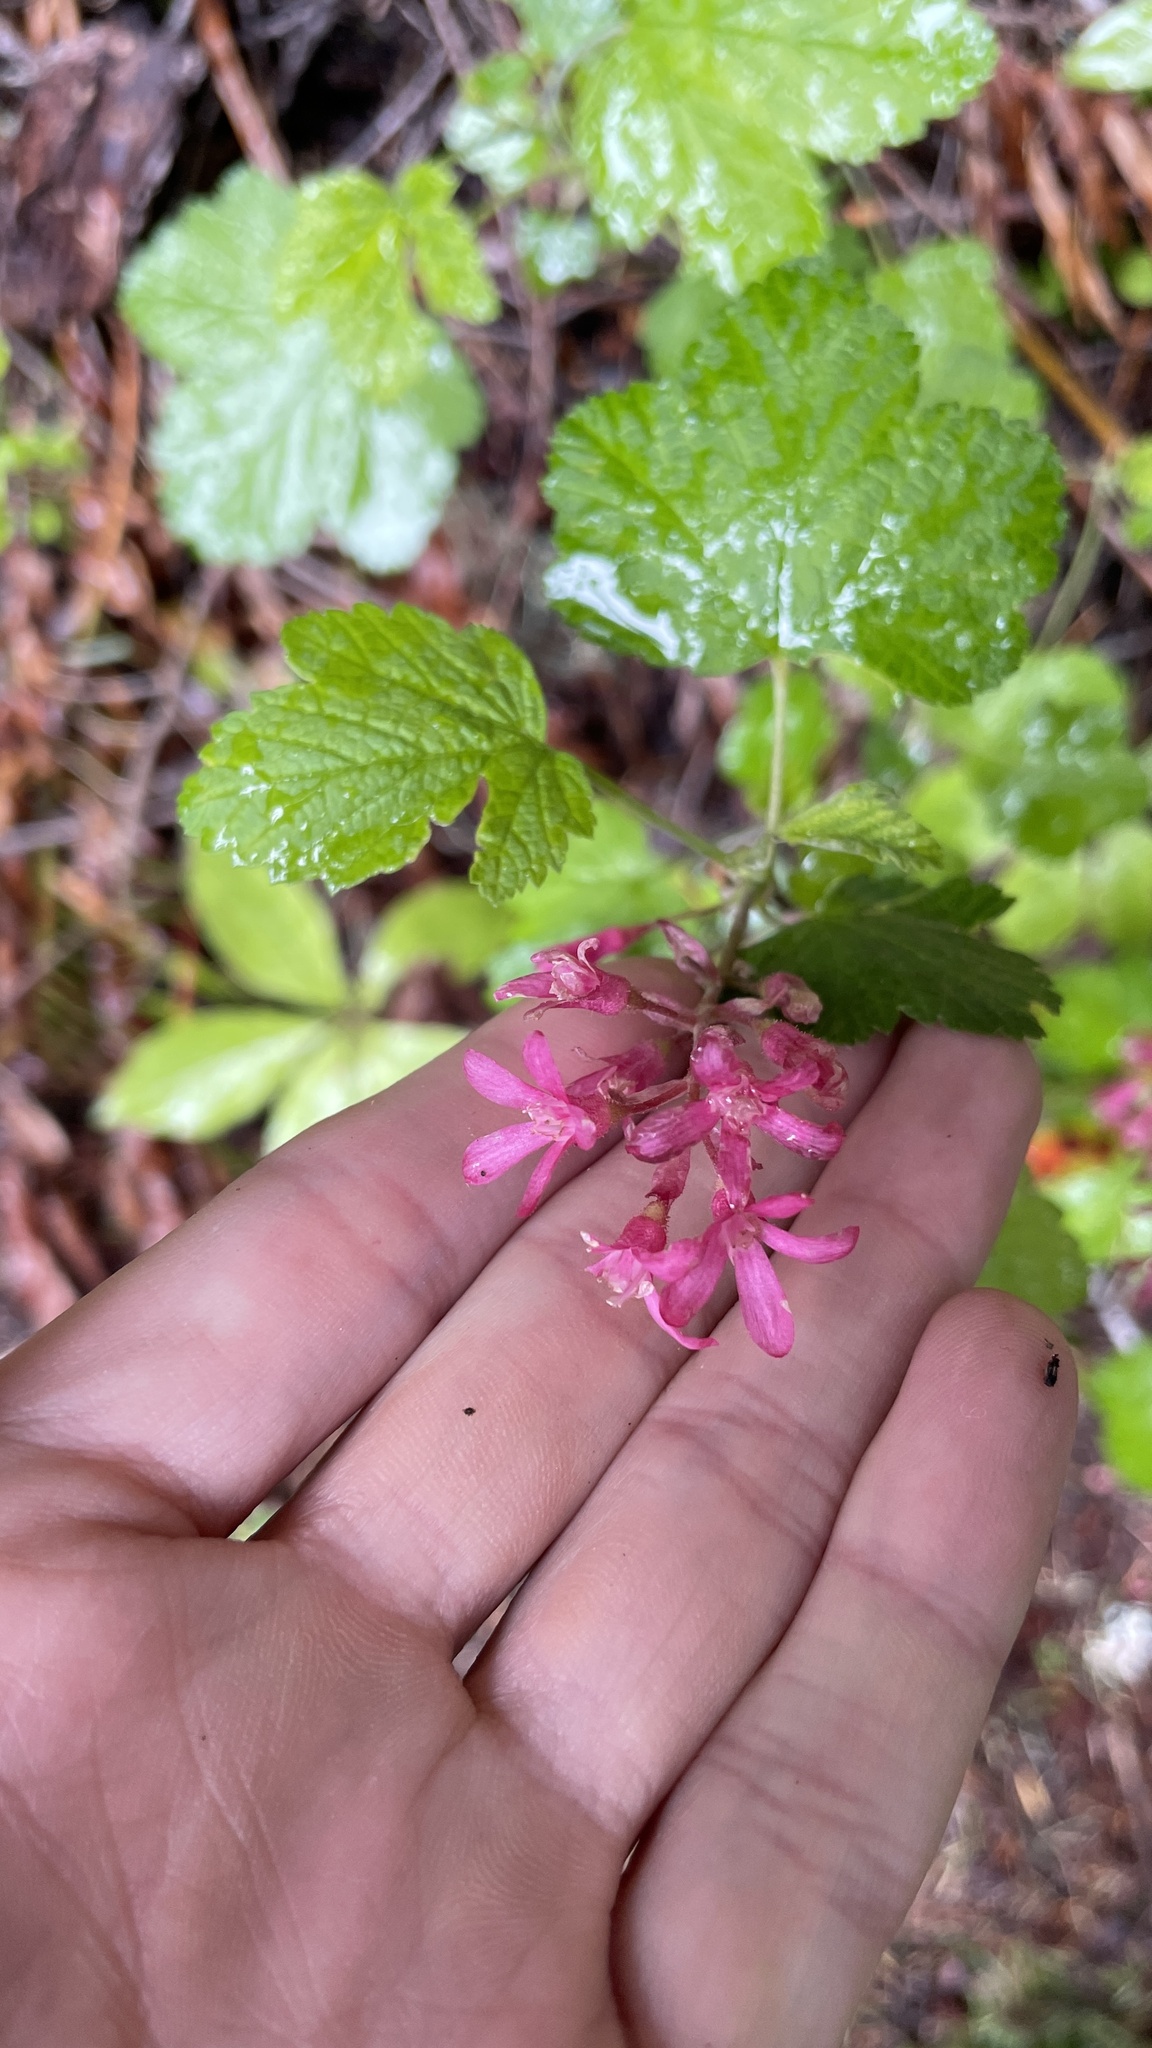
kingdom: Plantae
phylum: Tracheophyta
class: Magnoliopsida
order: Saxifragales
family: Grossulariaceae
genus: Ribes
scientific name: Ribes sanguineum
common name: Flowering currant
